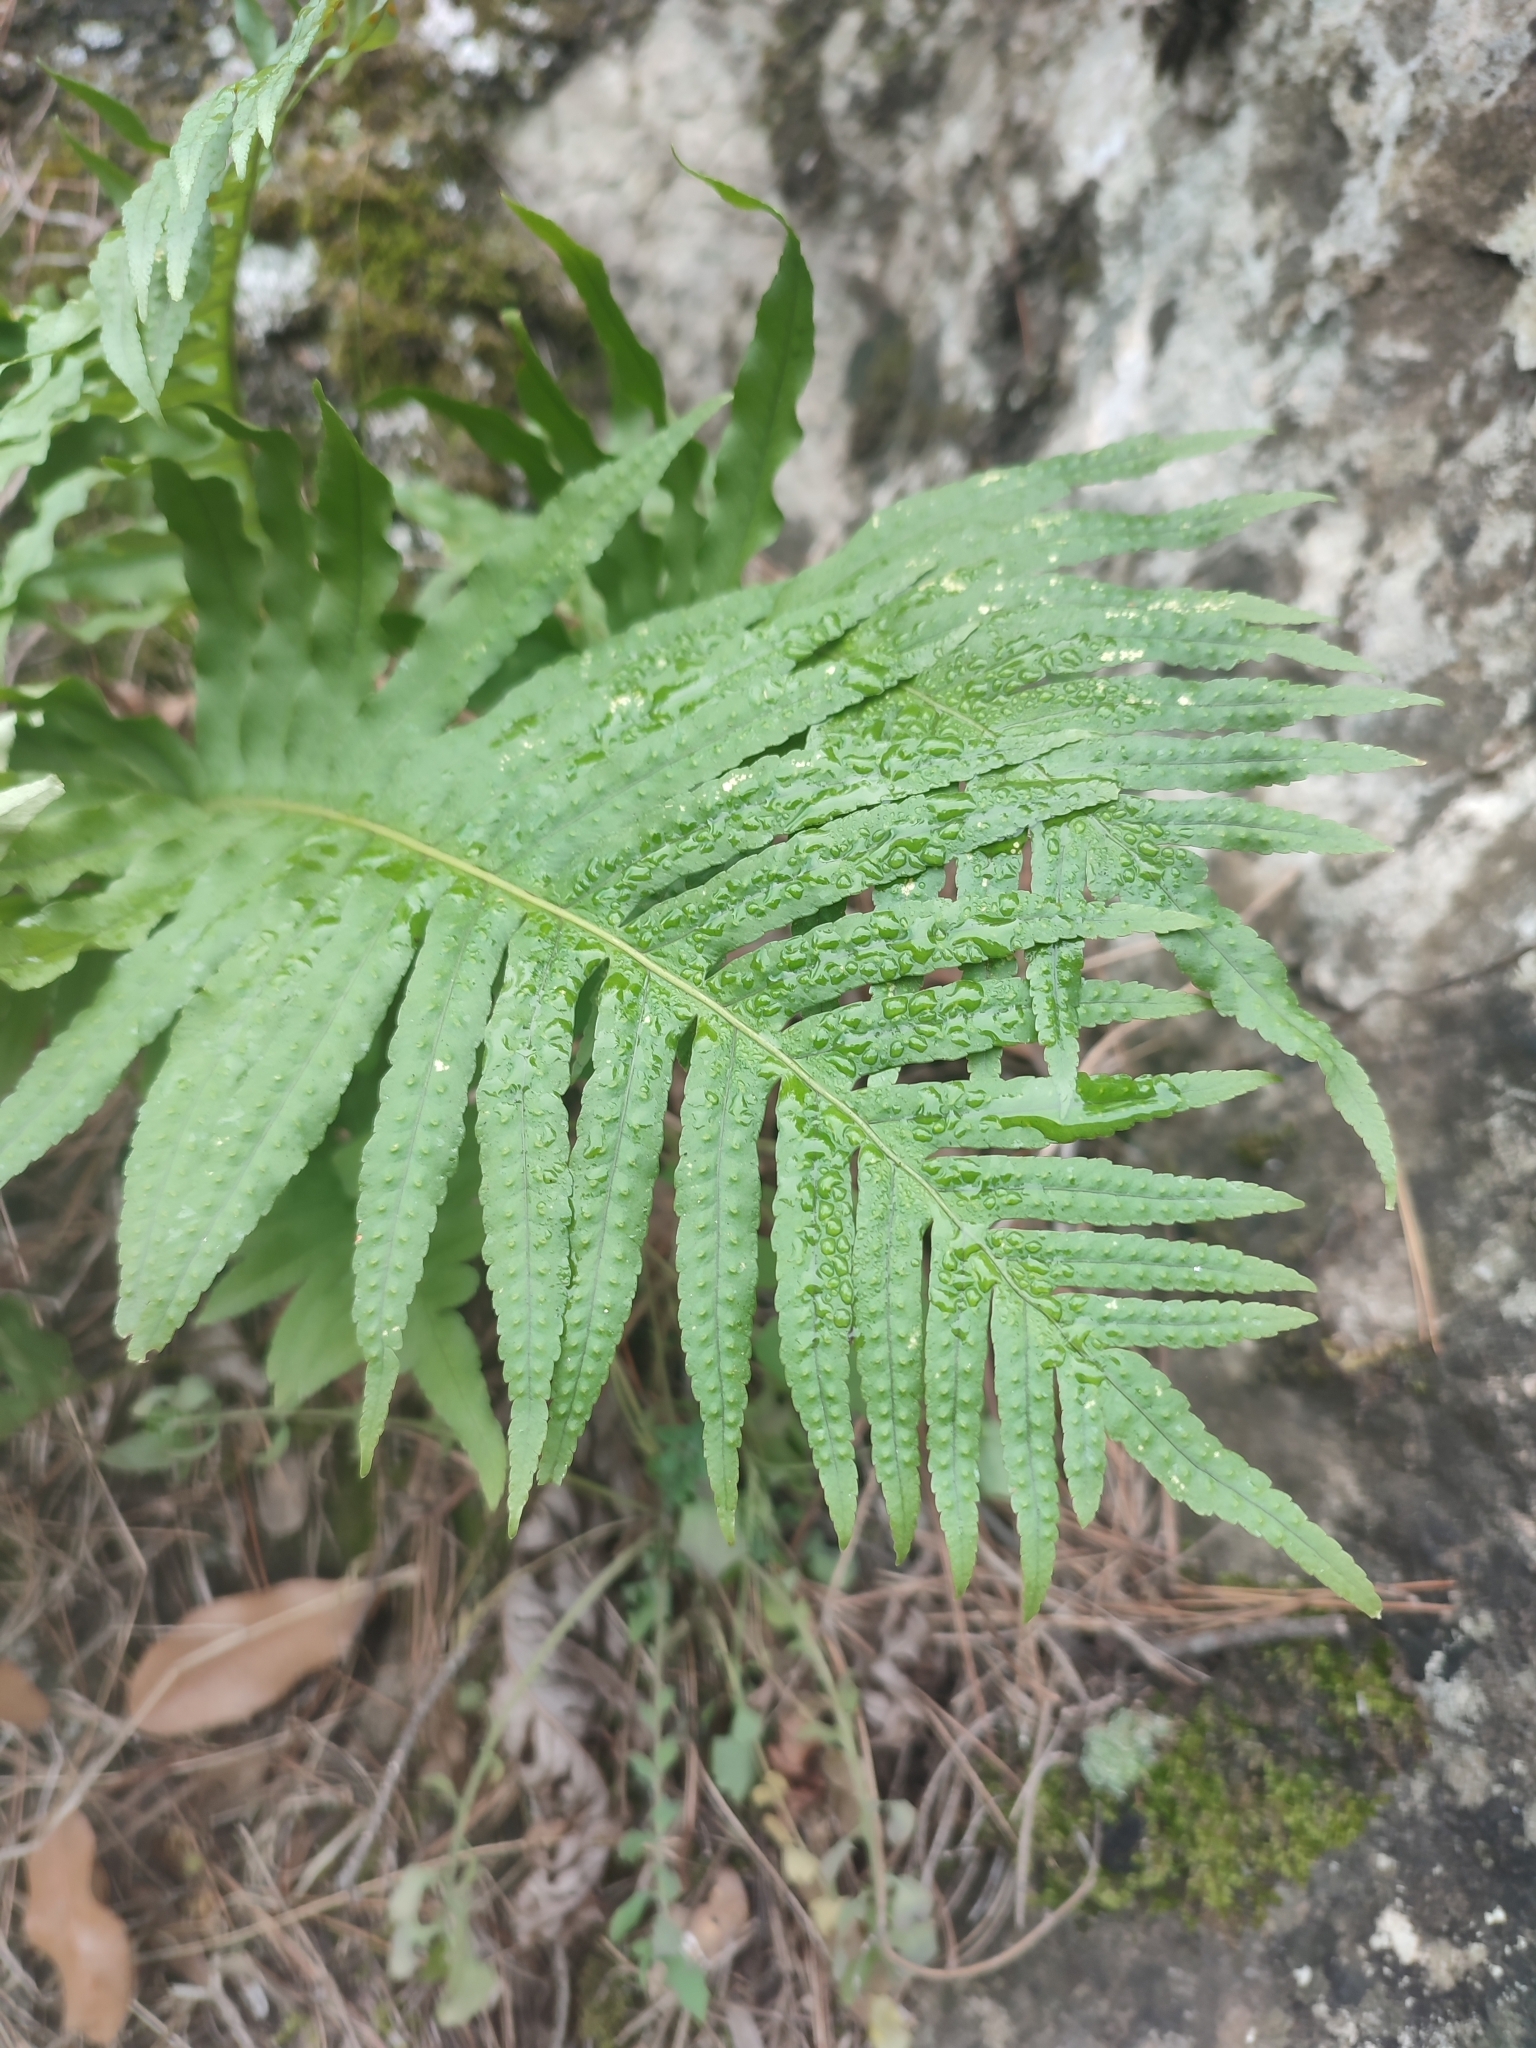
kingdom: Plantae
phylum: Tracheophyta
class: Polypodiopsida
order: Polypodiales
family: Polypodiaceae
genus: Polypodium
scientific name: Polypodium cambricum
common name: Southern polypody
